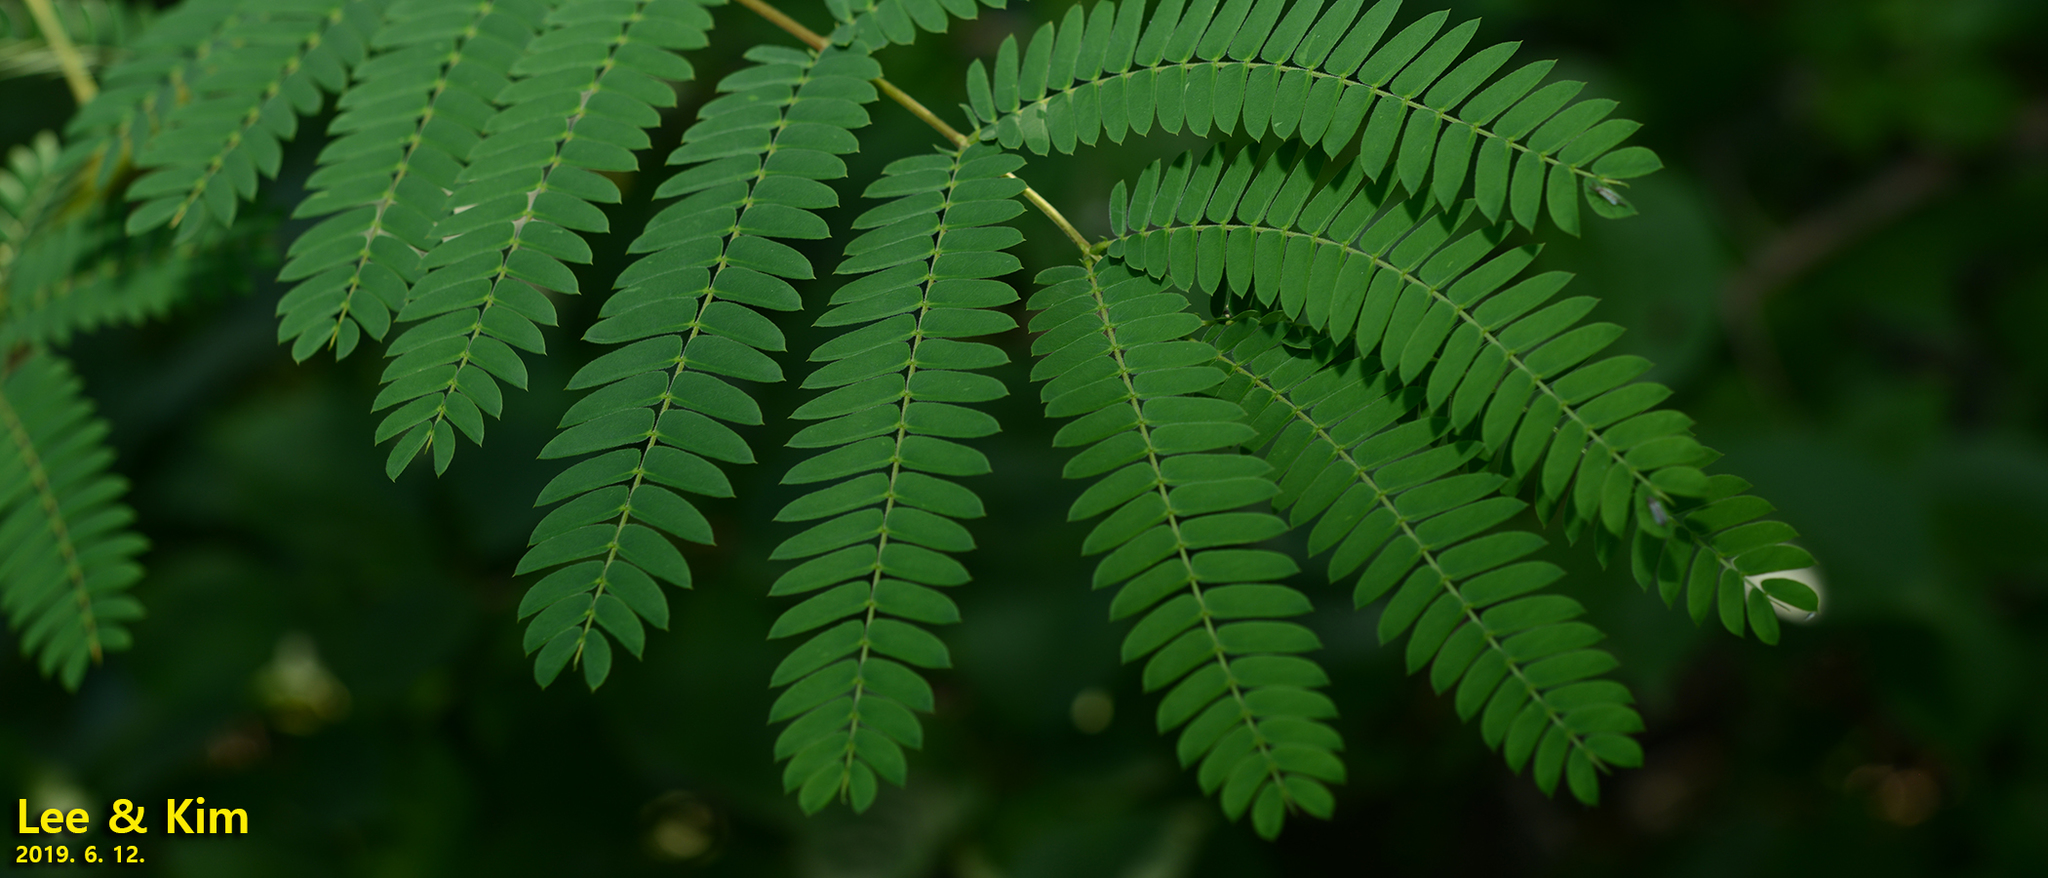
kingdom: Plantae
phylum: Tracheophyta
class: Magnoliopsida
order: Fabales
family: Fabaceae
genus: Albizia
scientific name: Albizia julibrissin
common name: Silktree
